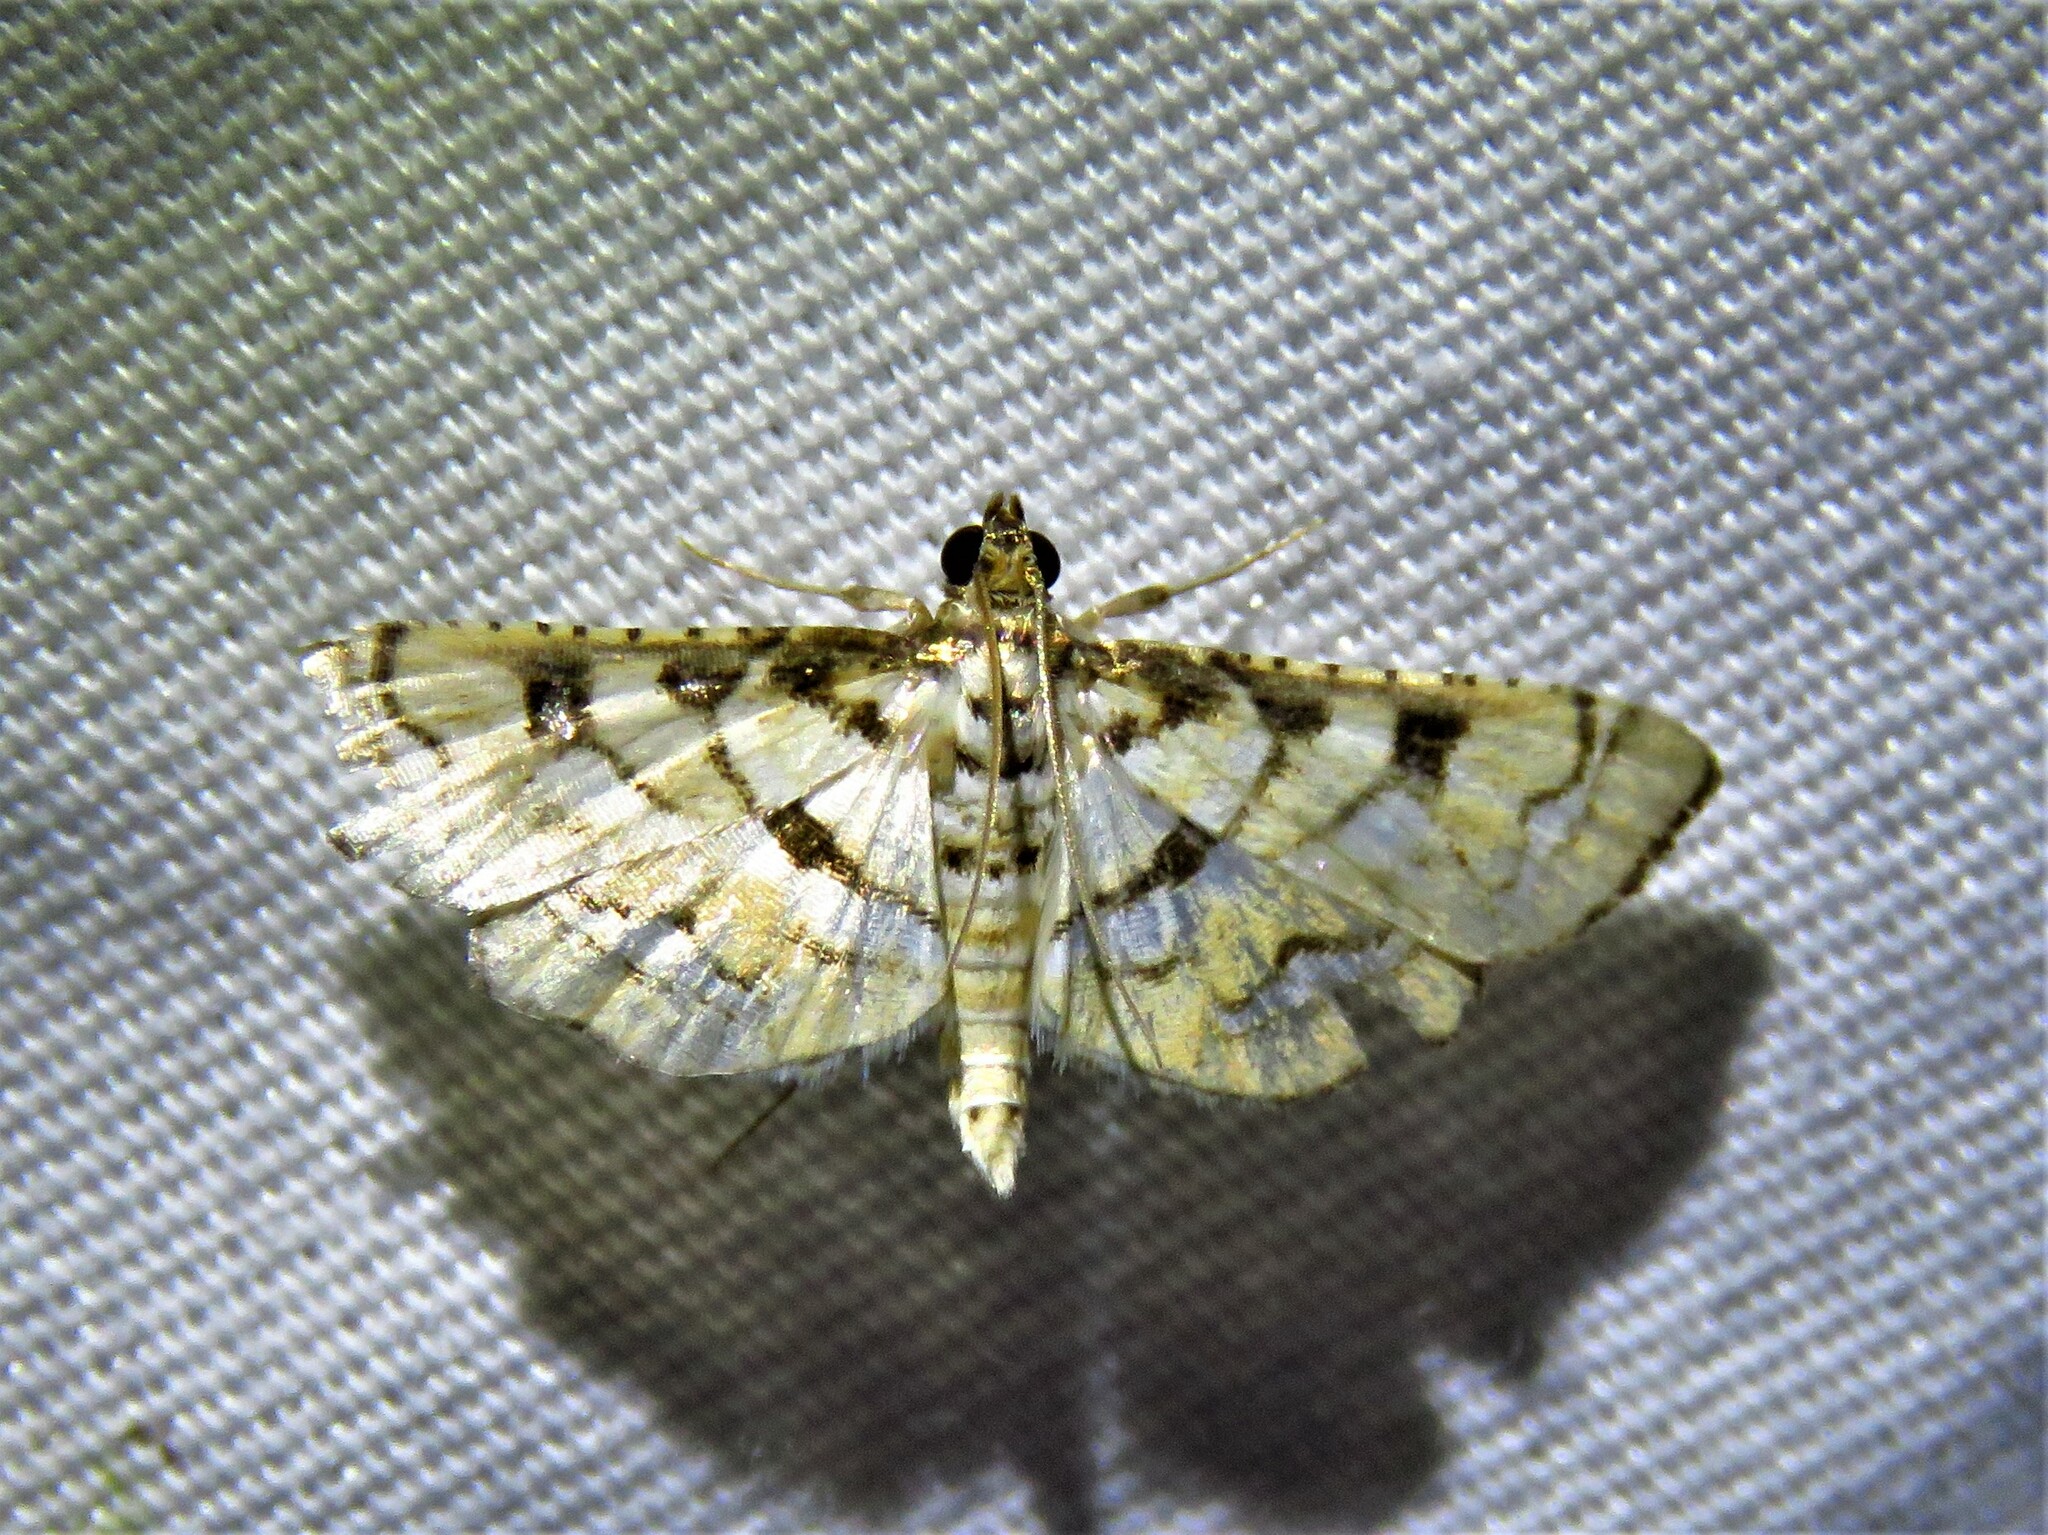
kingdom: Animalia
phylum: Arthropoda
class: Insecta
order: Lepidoptera
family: Crambidae
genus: Hileithia
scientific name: Hileithia magualis
